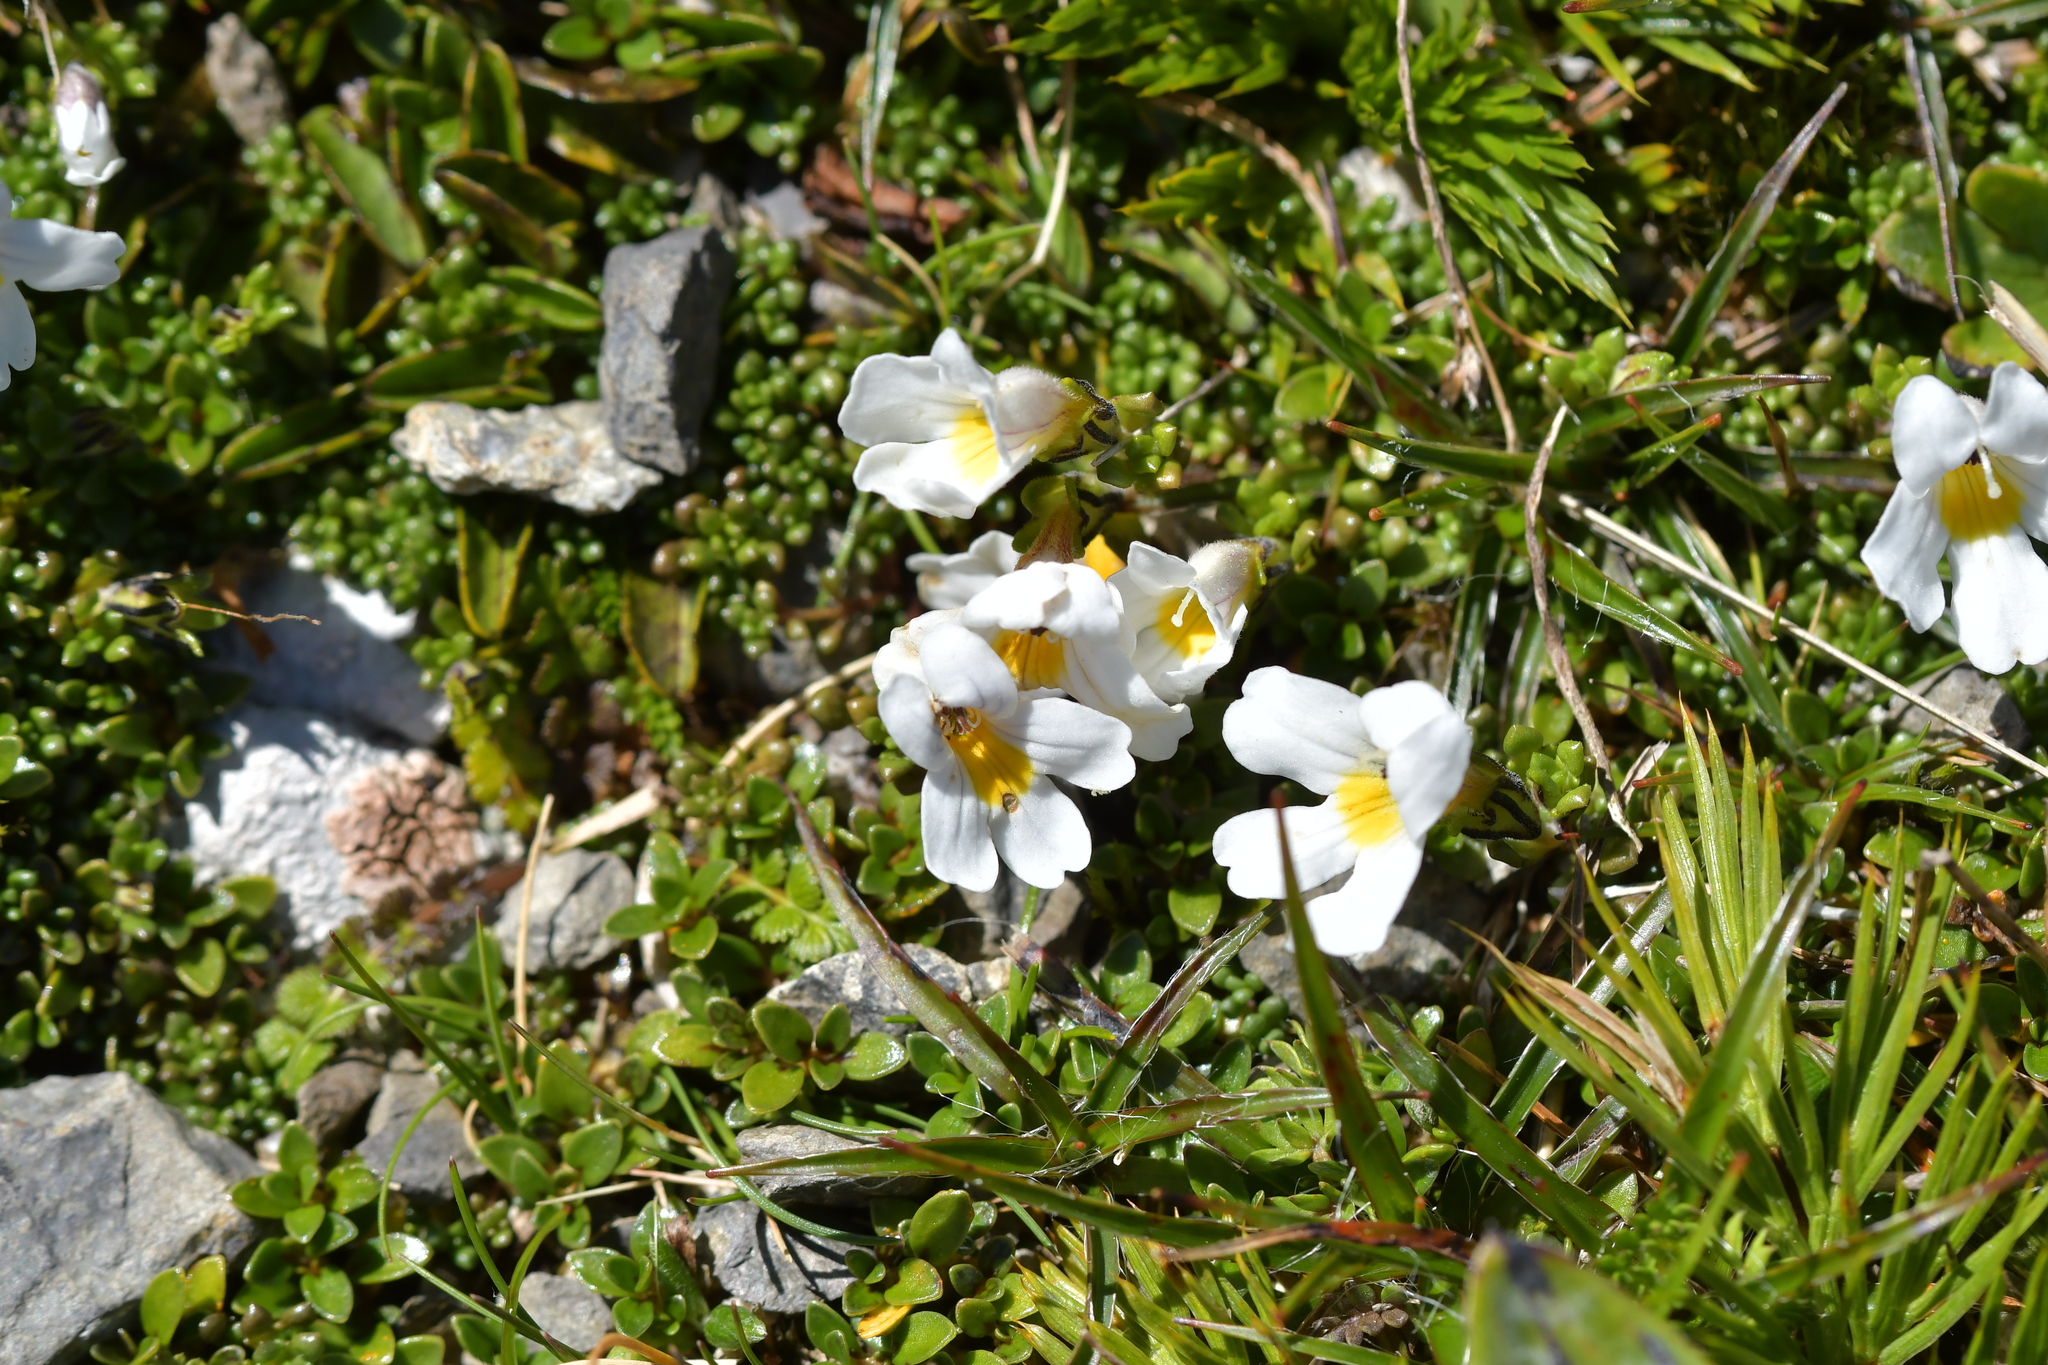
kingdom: Plantae
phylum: Tracheophyta
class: Magnoliopsida
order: Lamiales
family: Orobanchaceae
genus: Euphrasia
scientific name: Euphrasia revoluta
